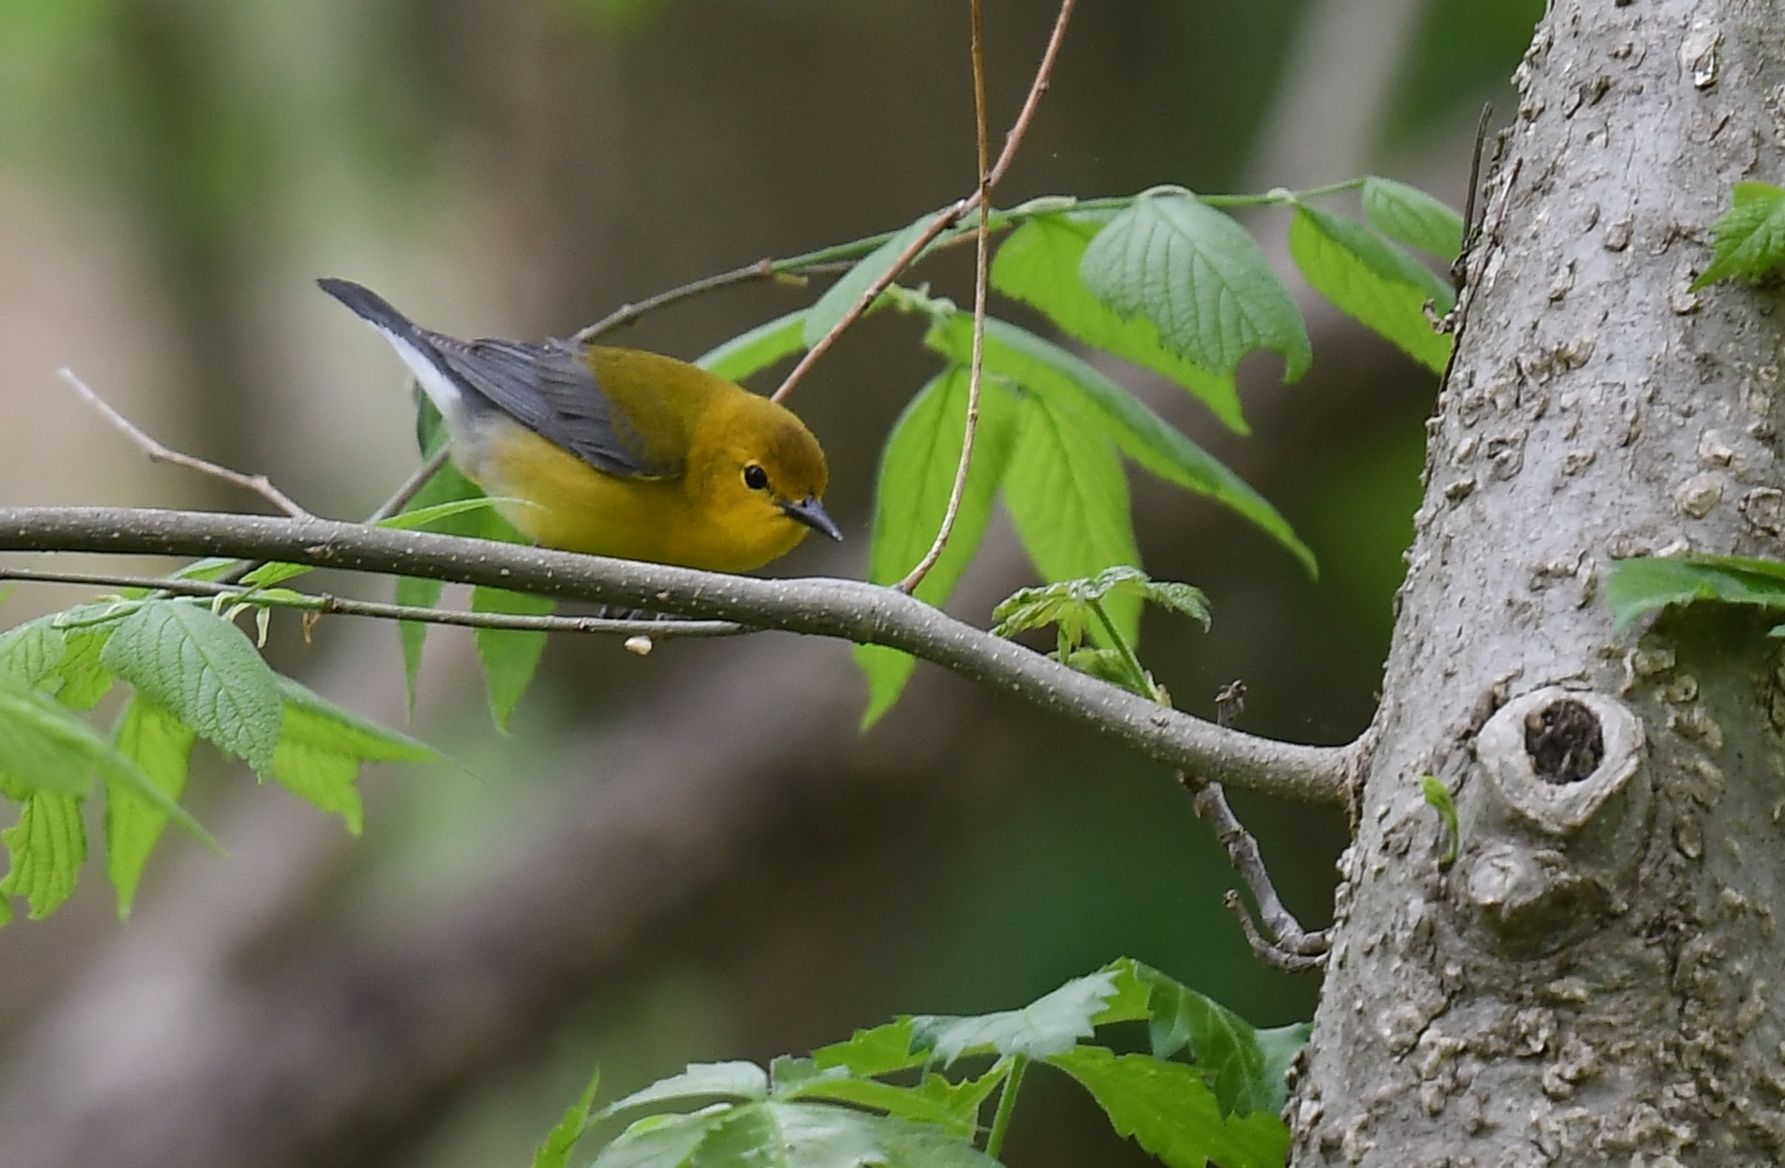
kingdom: Animalia
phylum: Chordata
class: Aves
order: Passeriformes
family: Parulidae
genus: Protonotaria
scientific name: Protonotaria citrea
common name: Prothonotary warbler
